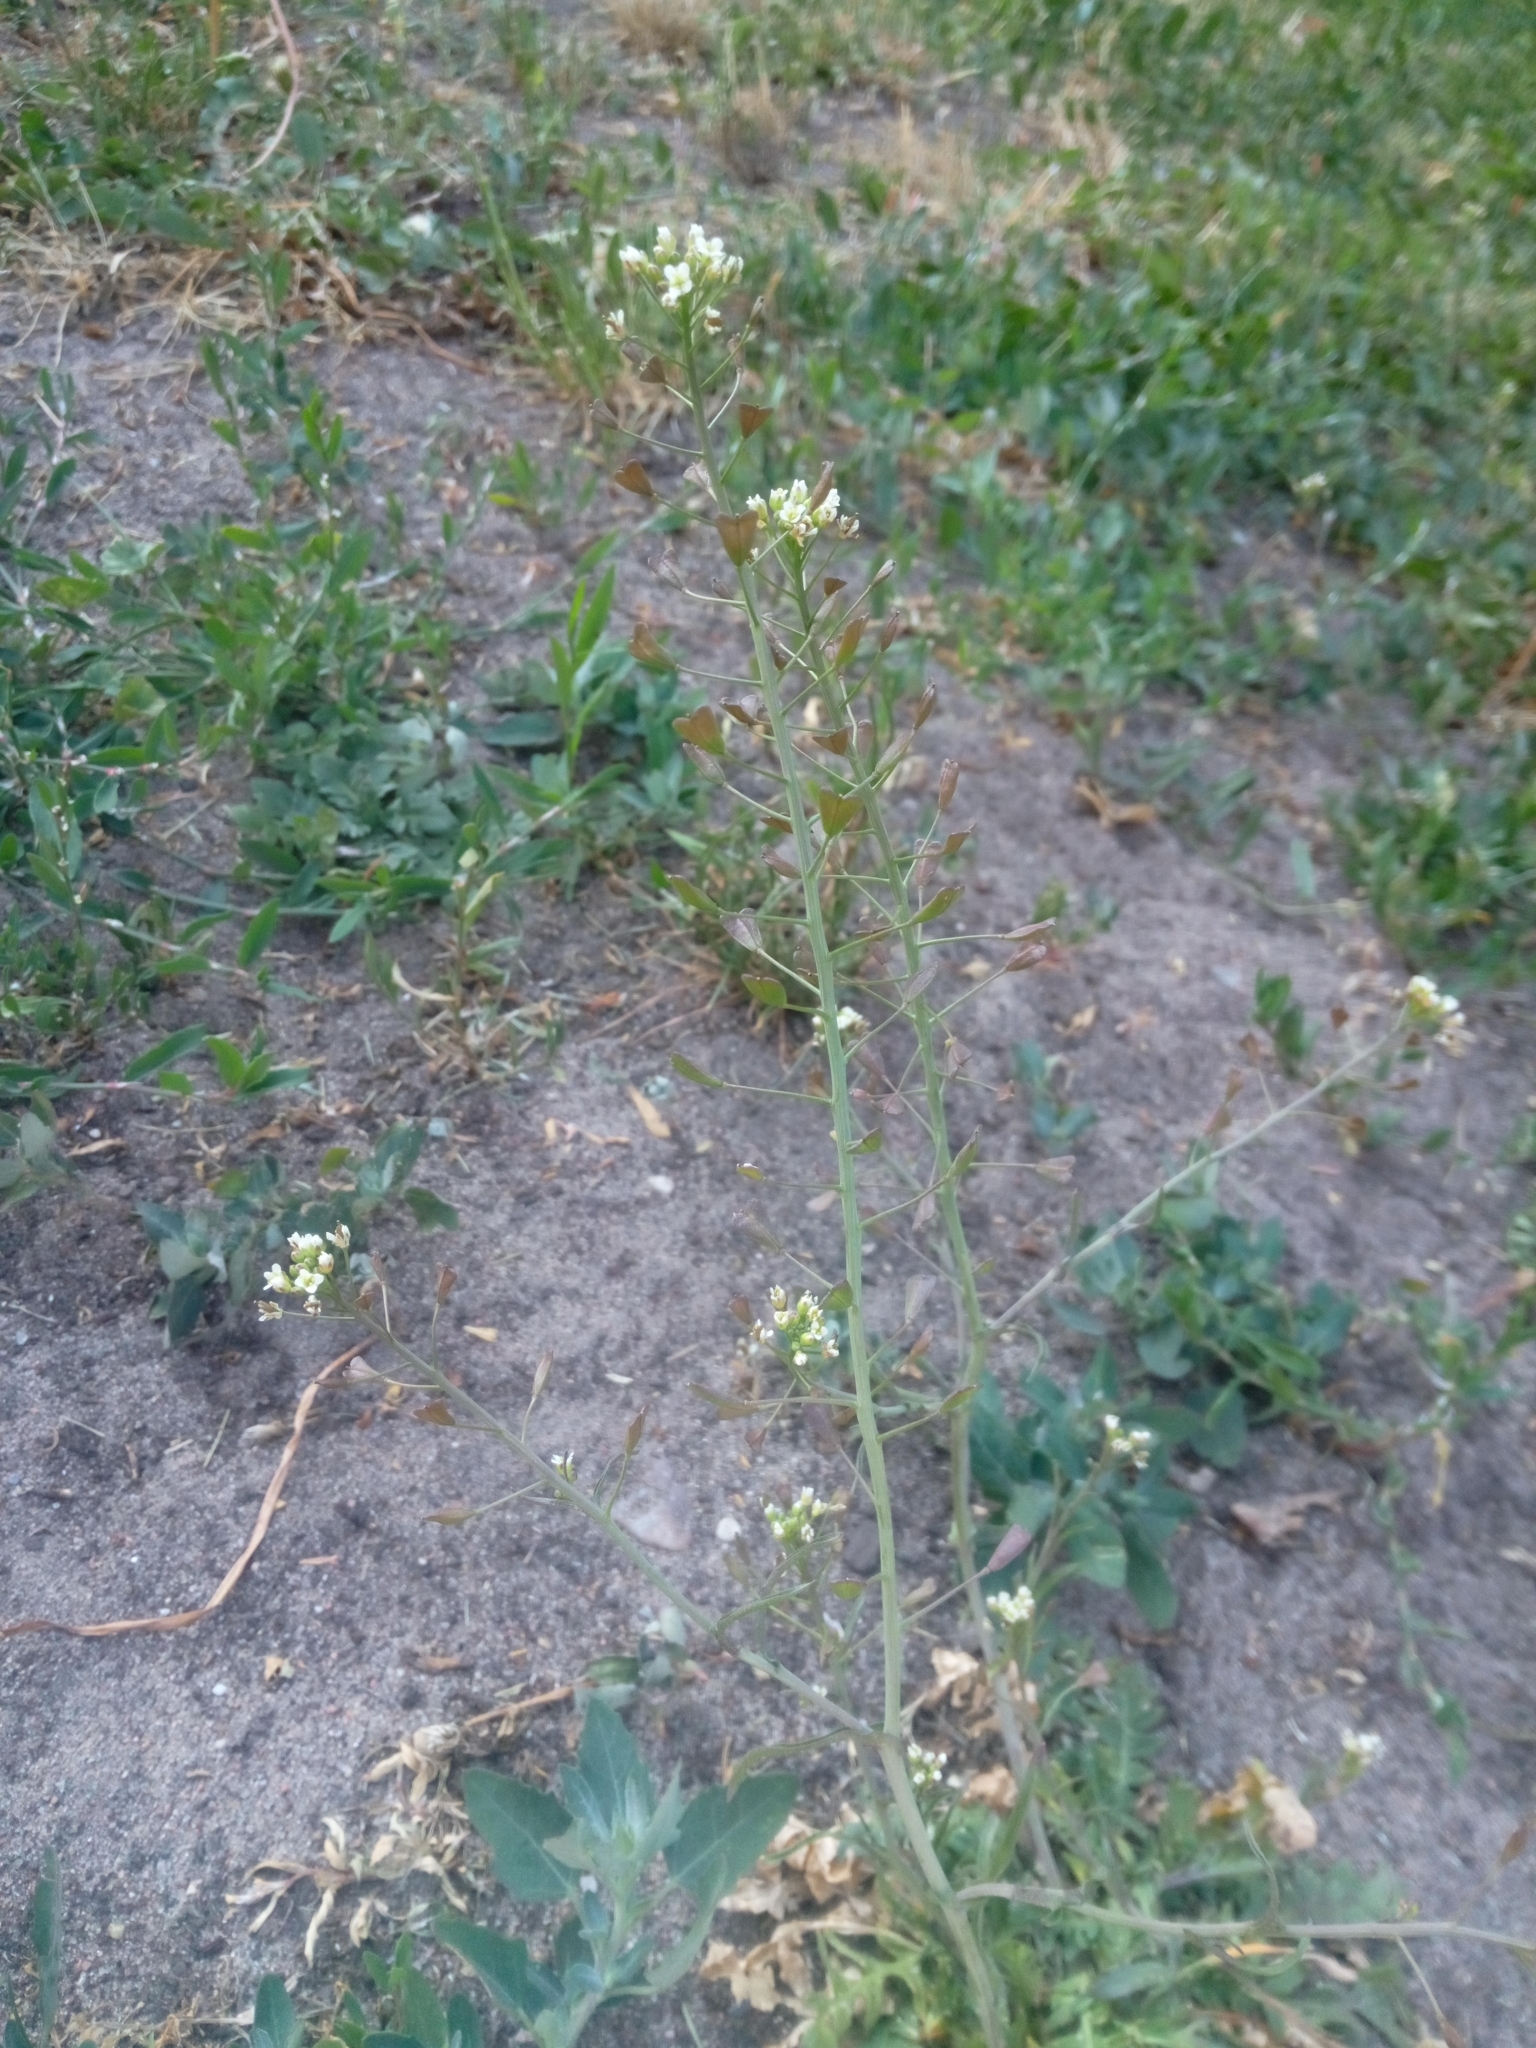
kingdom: Plantae
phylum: Tracheophyta
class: Magnoliopsida
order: Brassicales
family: Brassicaceae
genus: Capsella
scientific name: Capsella bursa-pastoris
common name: Shepherd's purse
